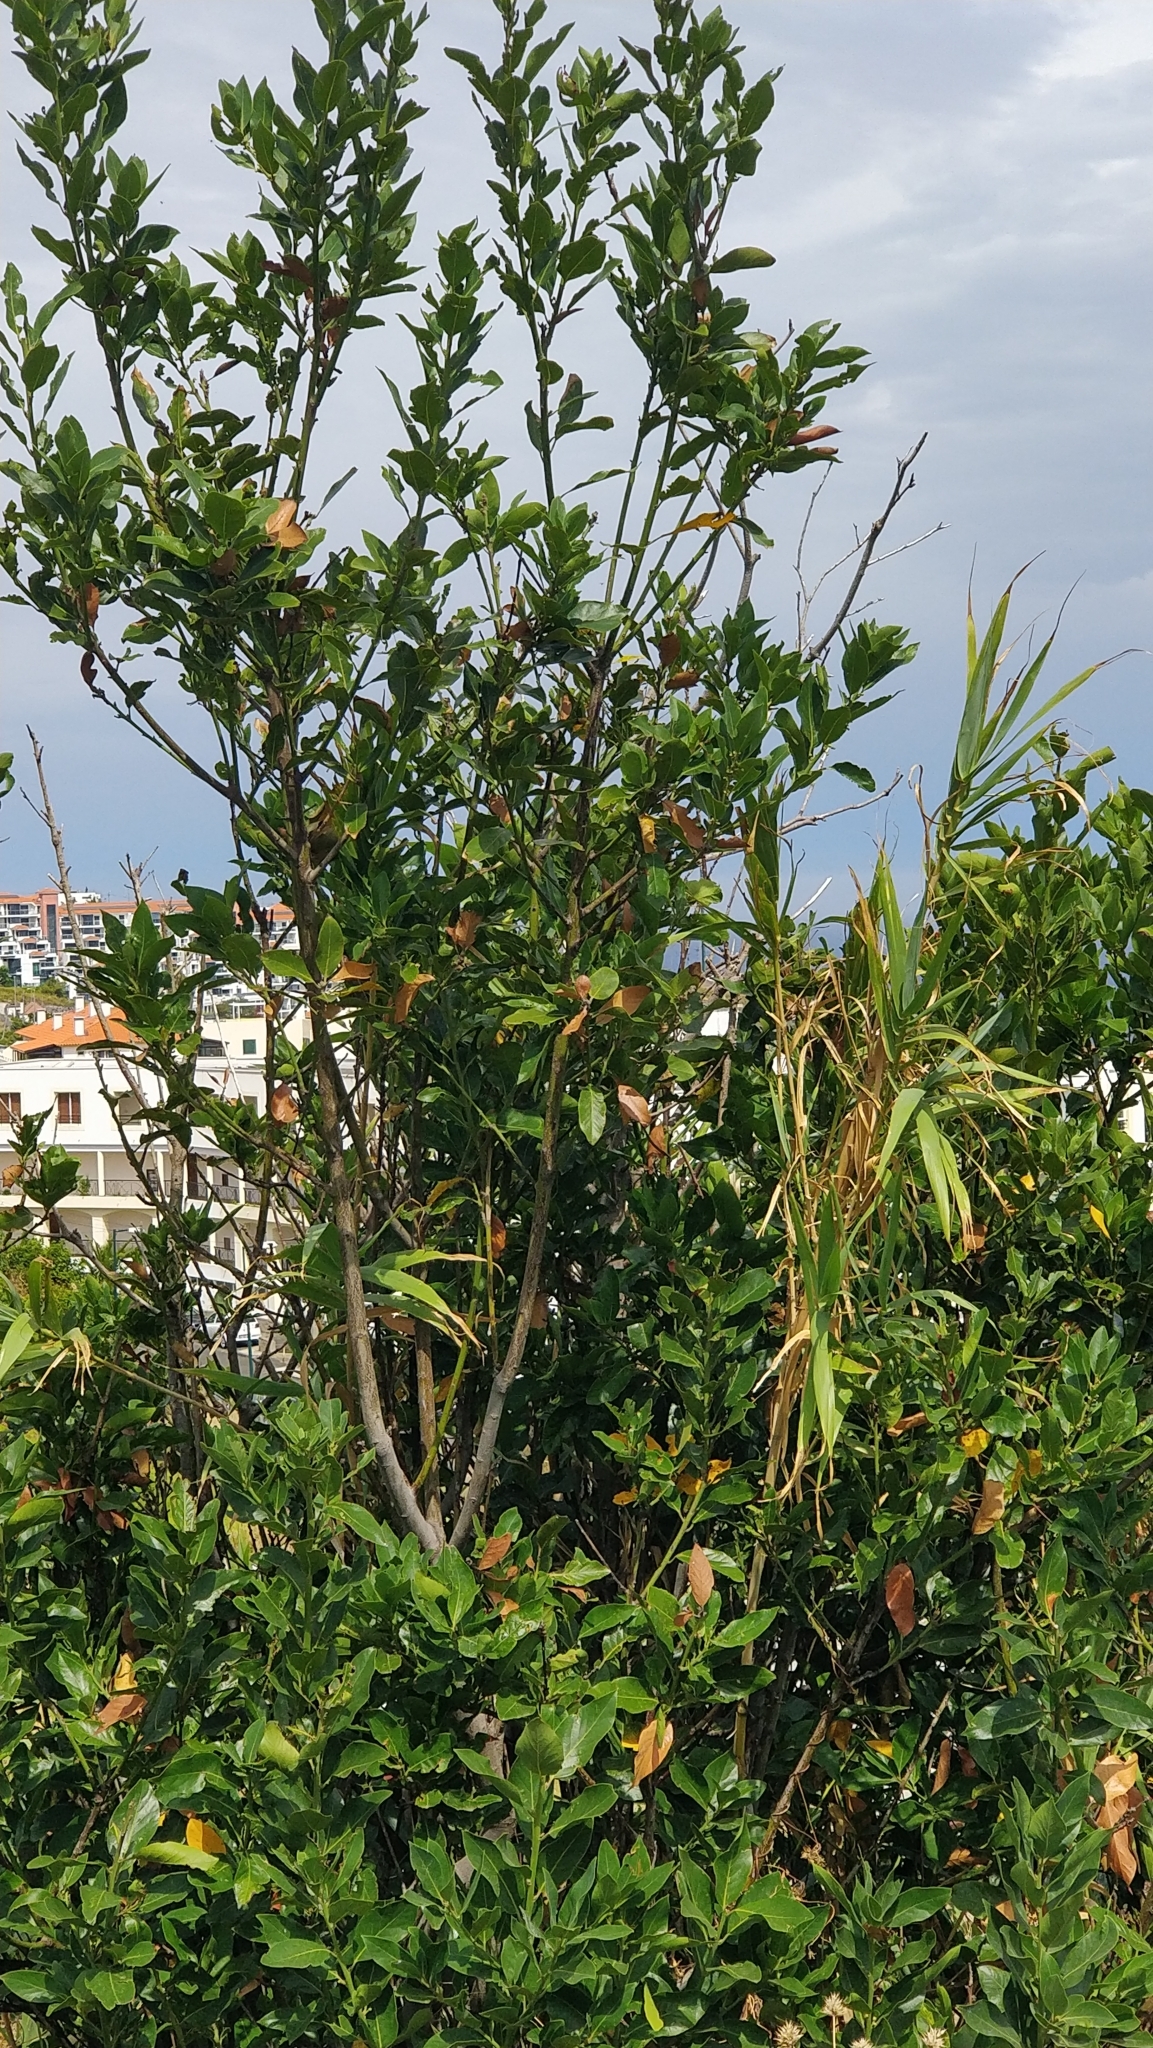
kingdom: Plantae
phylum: Tracheophyta
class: Magnoliopsida
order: Laurales
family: Lauraceae
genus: Laurus
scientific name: Laurus novocanariensis
